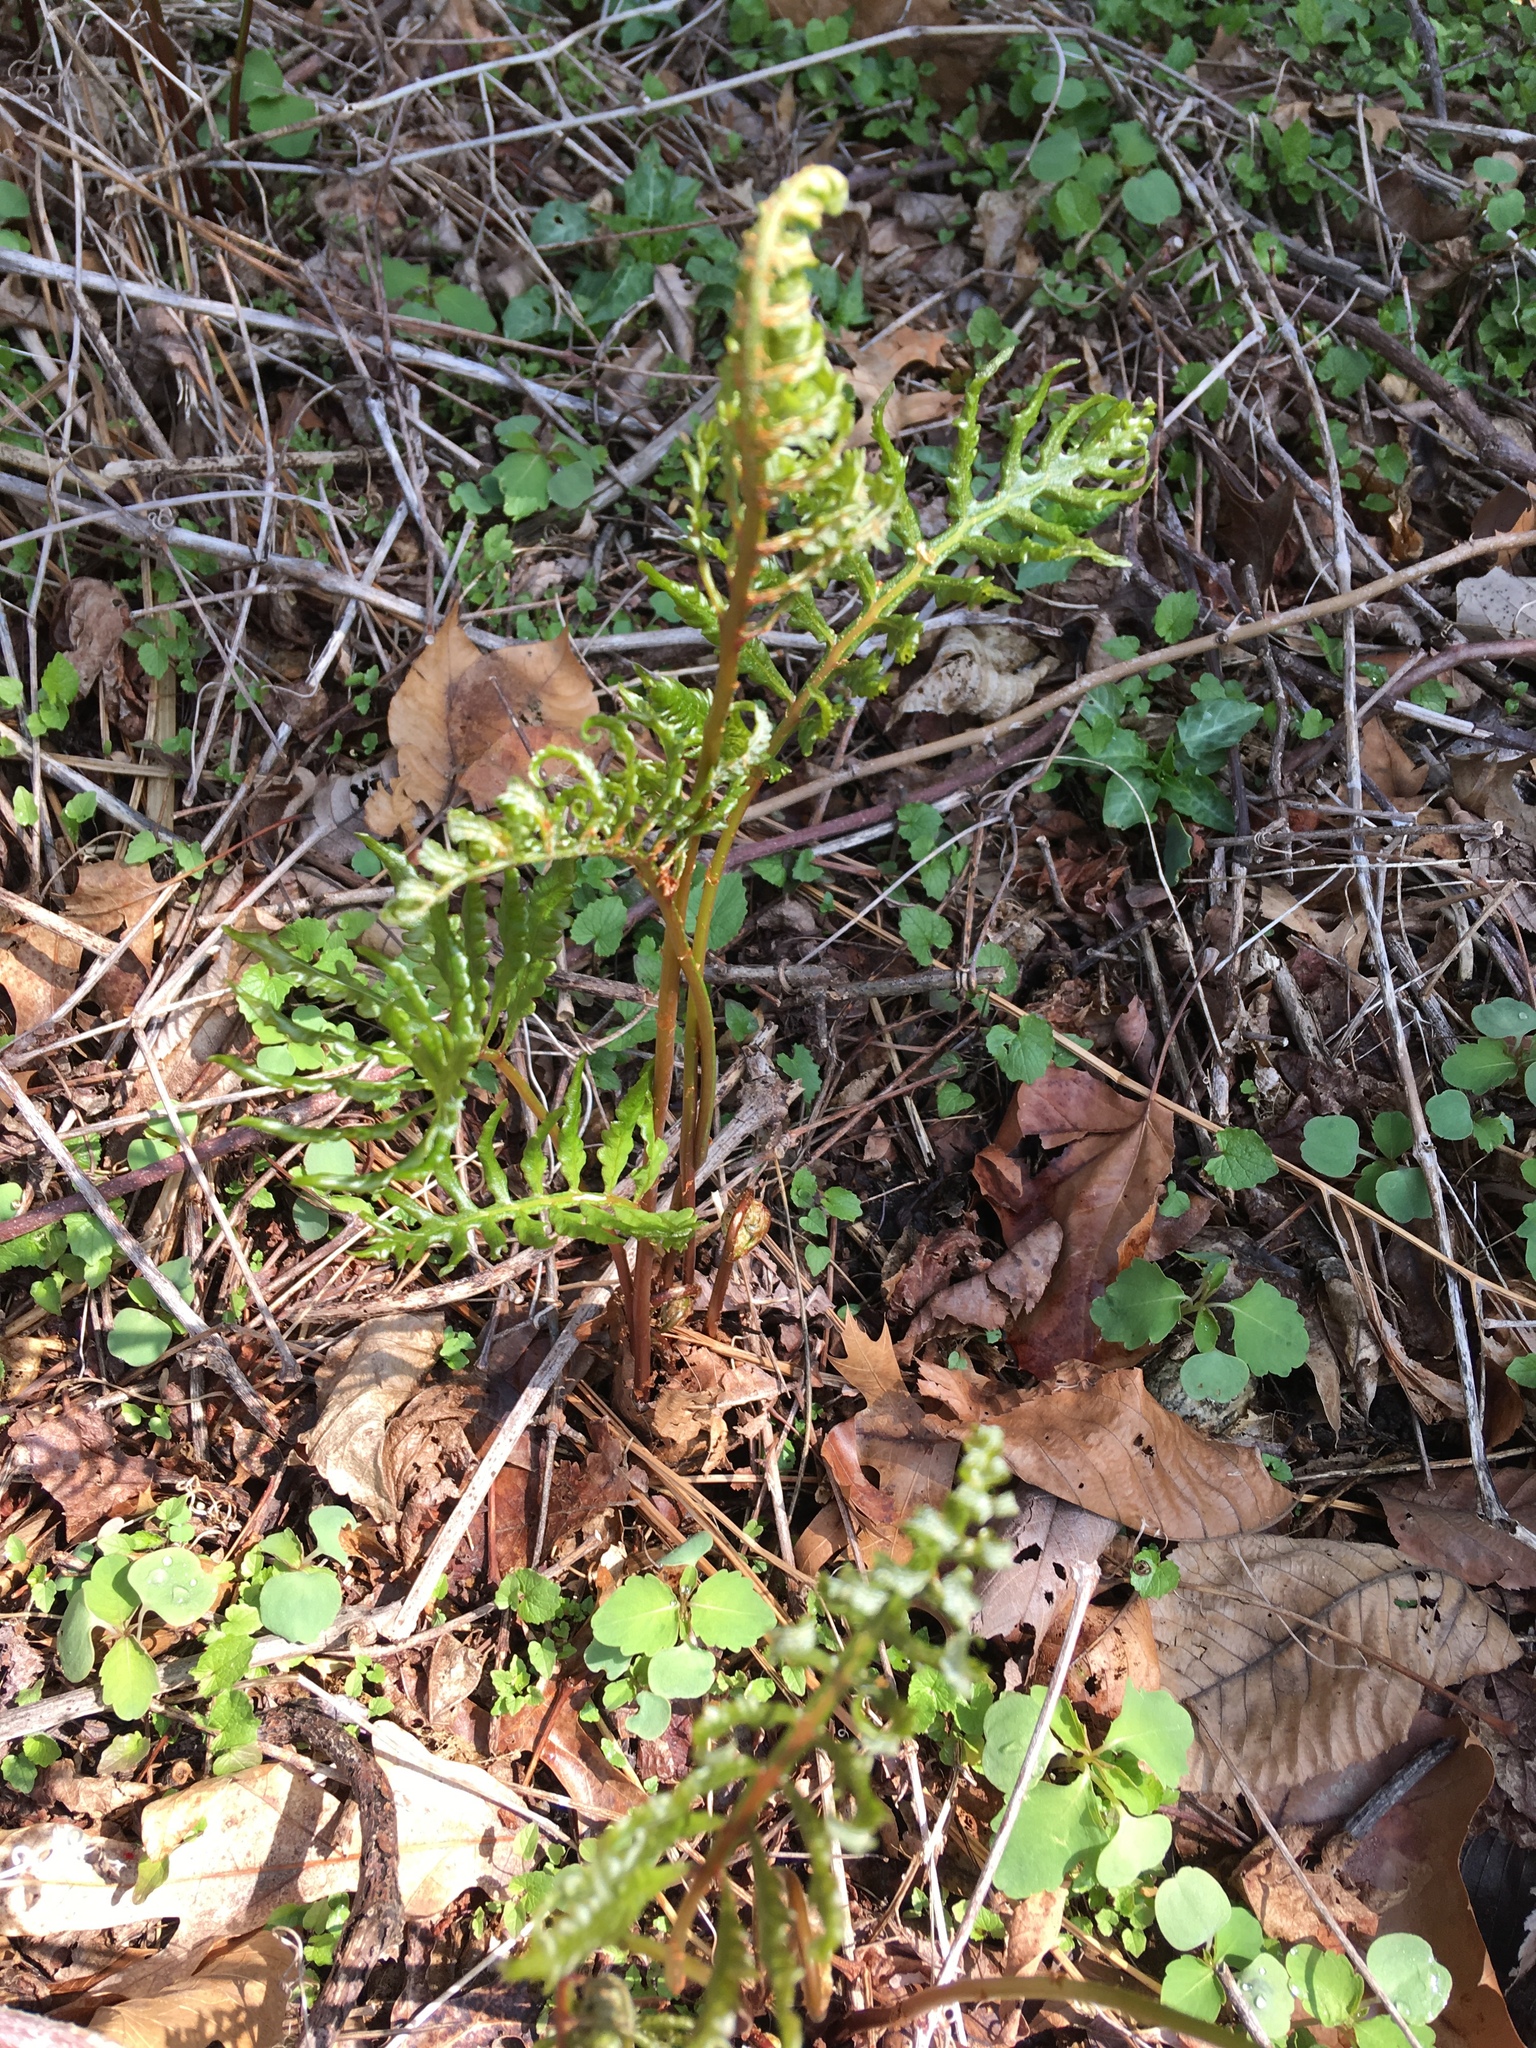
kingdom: Plantae
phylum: Tracheophyta
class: Polypodiopsida
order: Polypodiales
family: Onocleaceae
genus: Onoclea
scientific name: Onoclea sensibilis
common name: Sensitive fern
